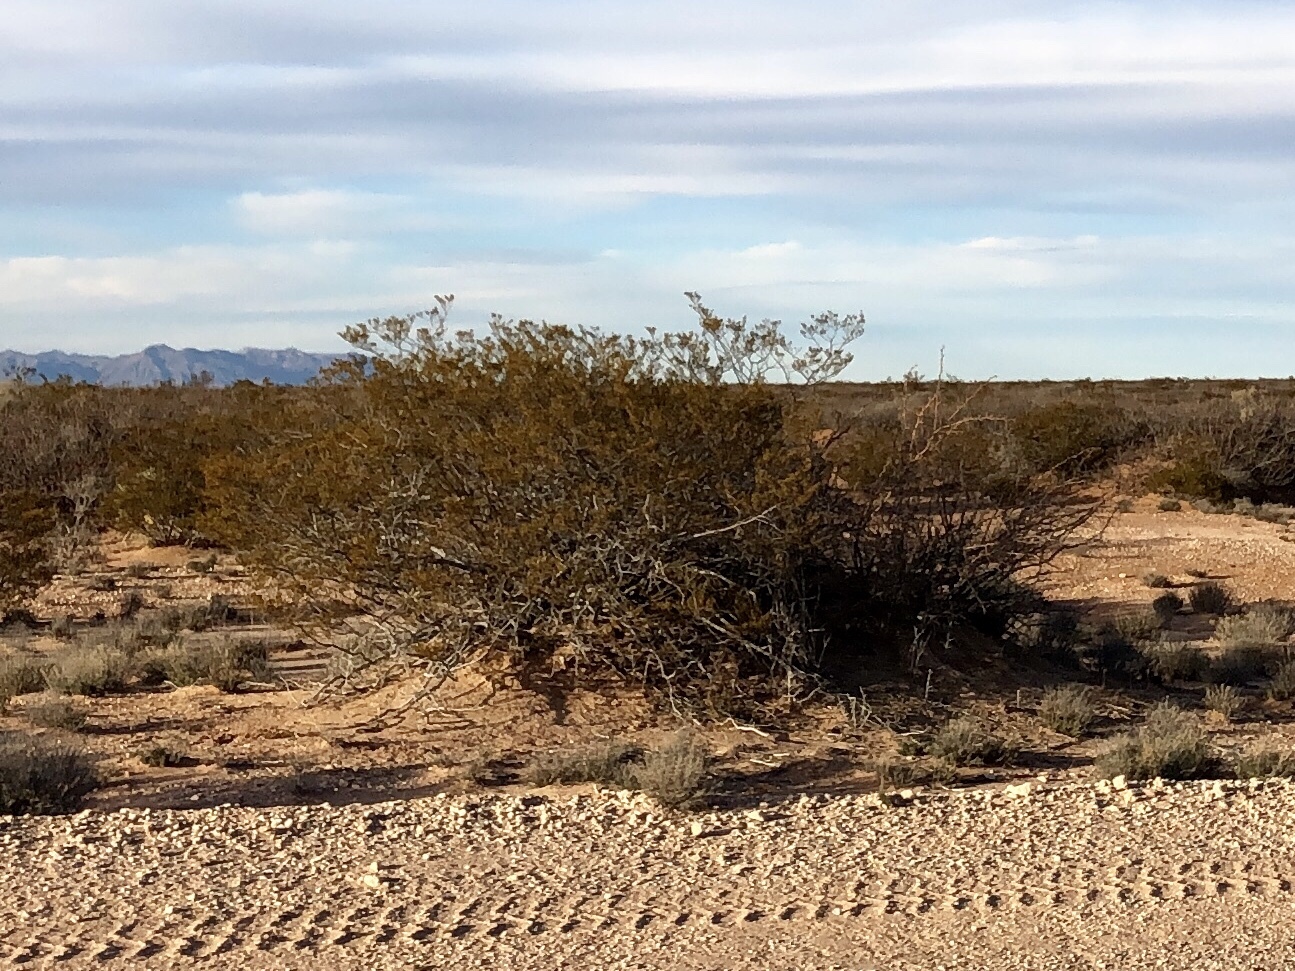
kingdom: Plantae
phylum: Tracheophyta
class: Magnoliopsida
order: Zygophyllales
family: Zygophyllaceae
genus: Larrea
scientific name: Larrea tridentata
